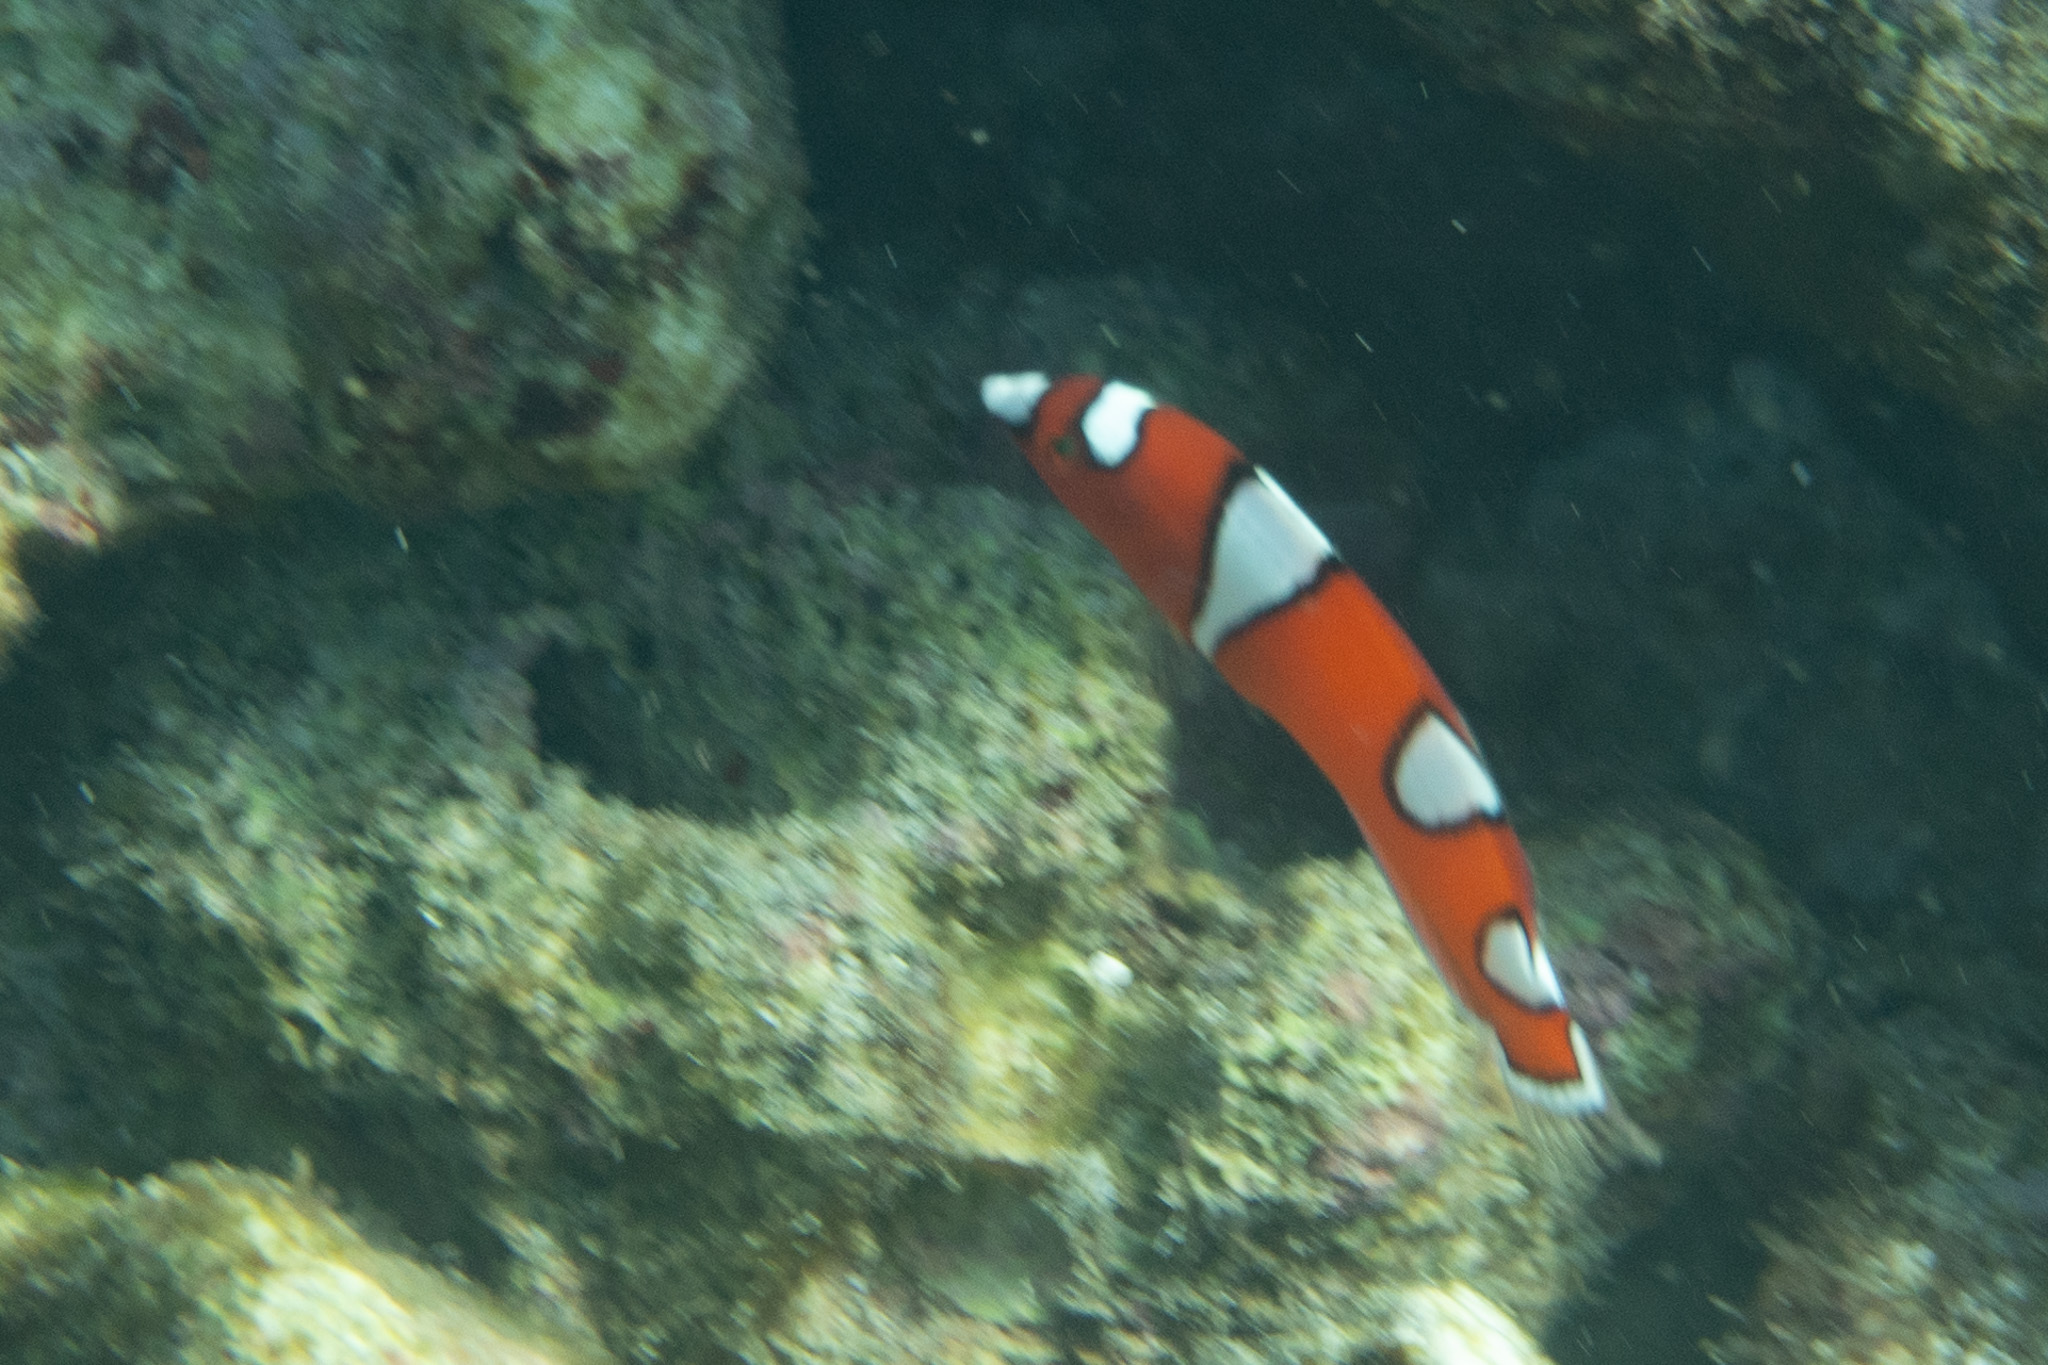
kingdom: Animalia
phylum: Chordata
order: Perciformes
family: Labridae
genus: Coris
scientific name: Coris gaimard
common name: Yellowtail coris
